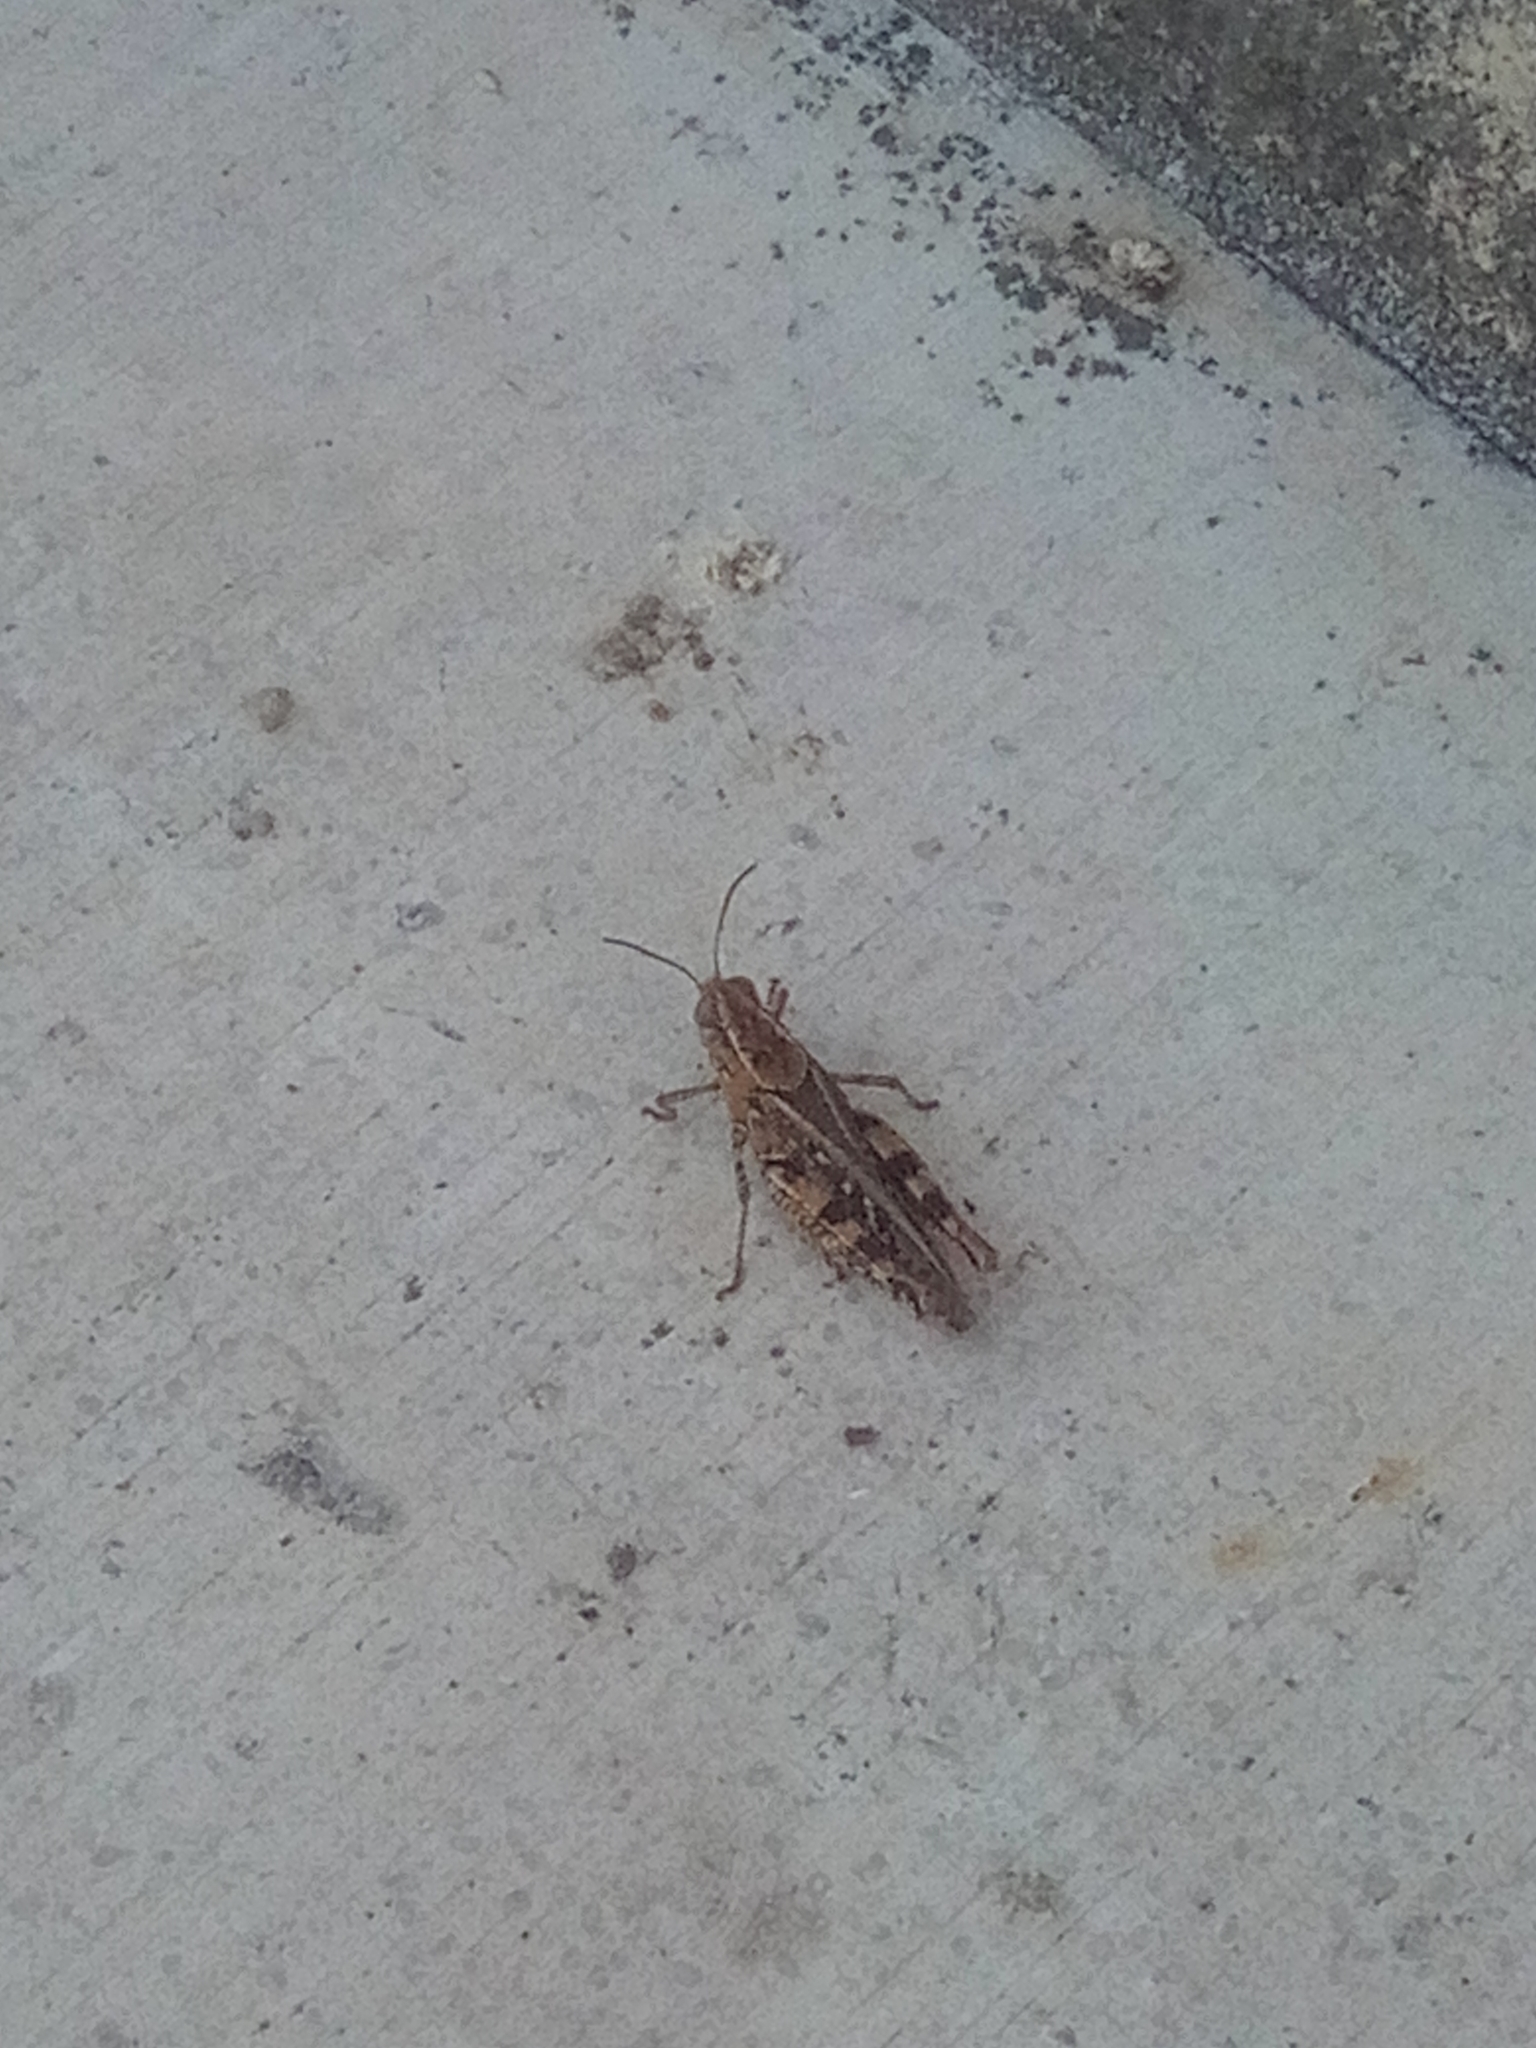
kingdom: Animalia
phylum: Arthropoda
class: Insecta
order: Orthoptera
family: Acrididae
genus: Calliptamus
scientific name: Calliptamus
